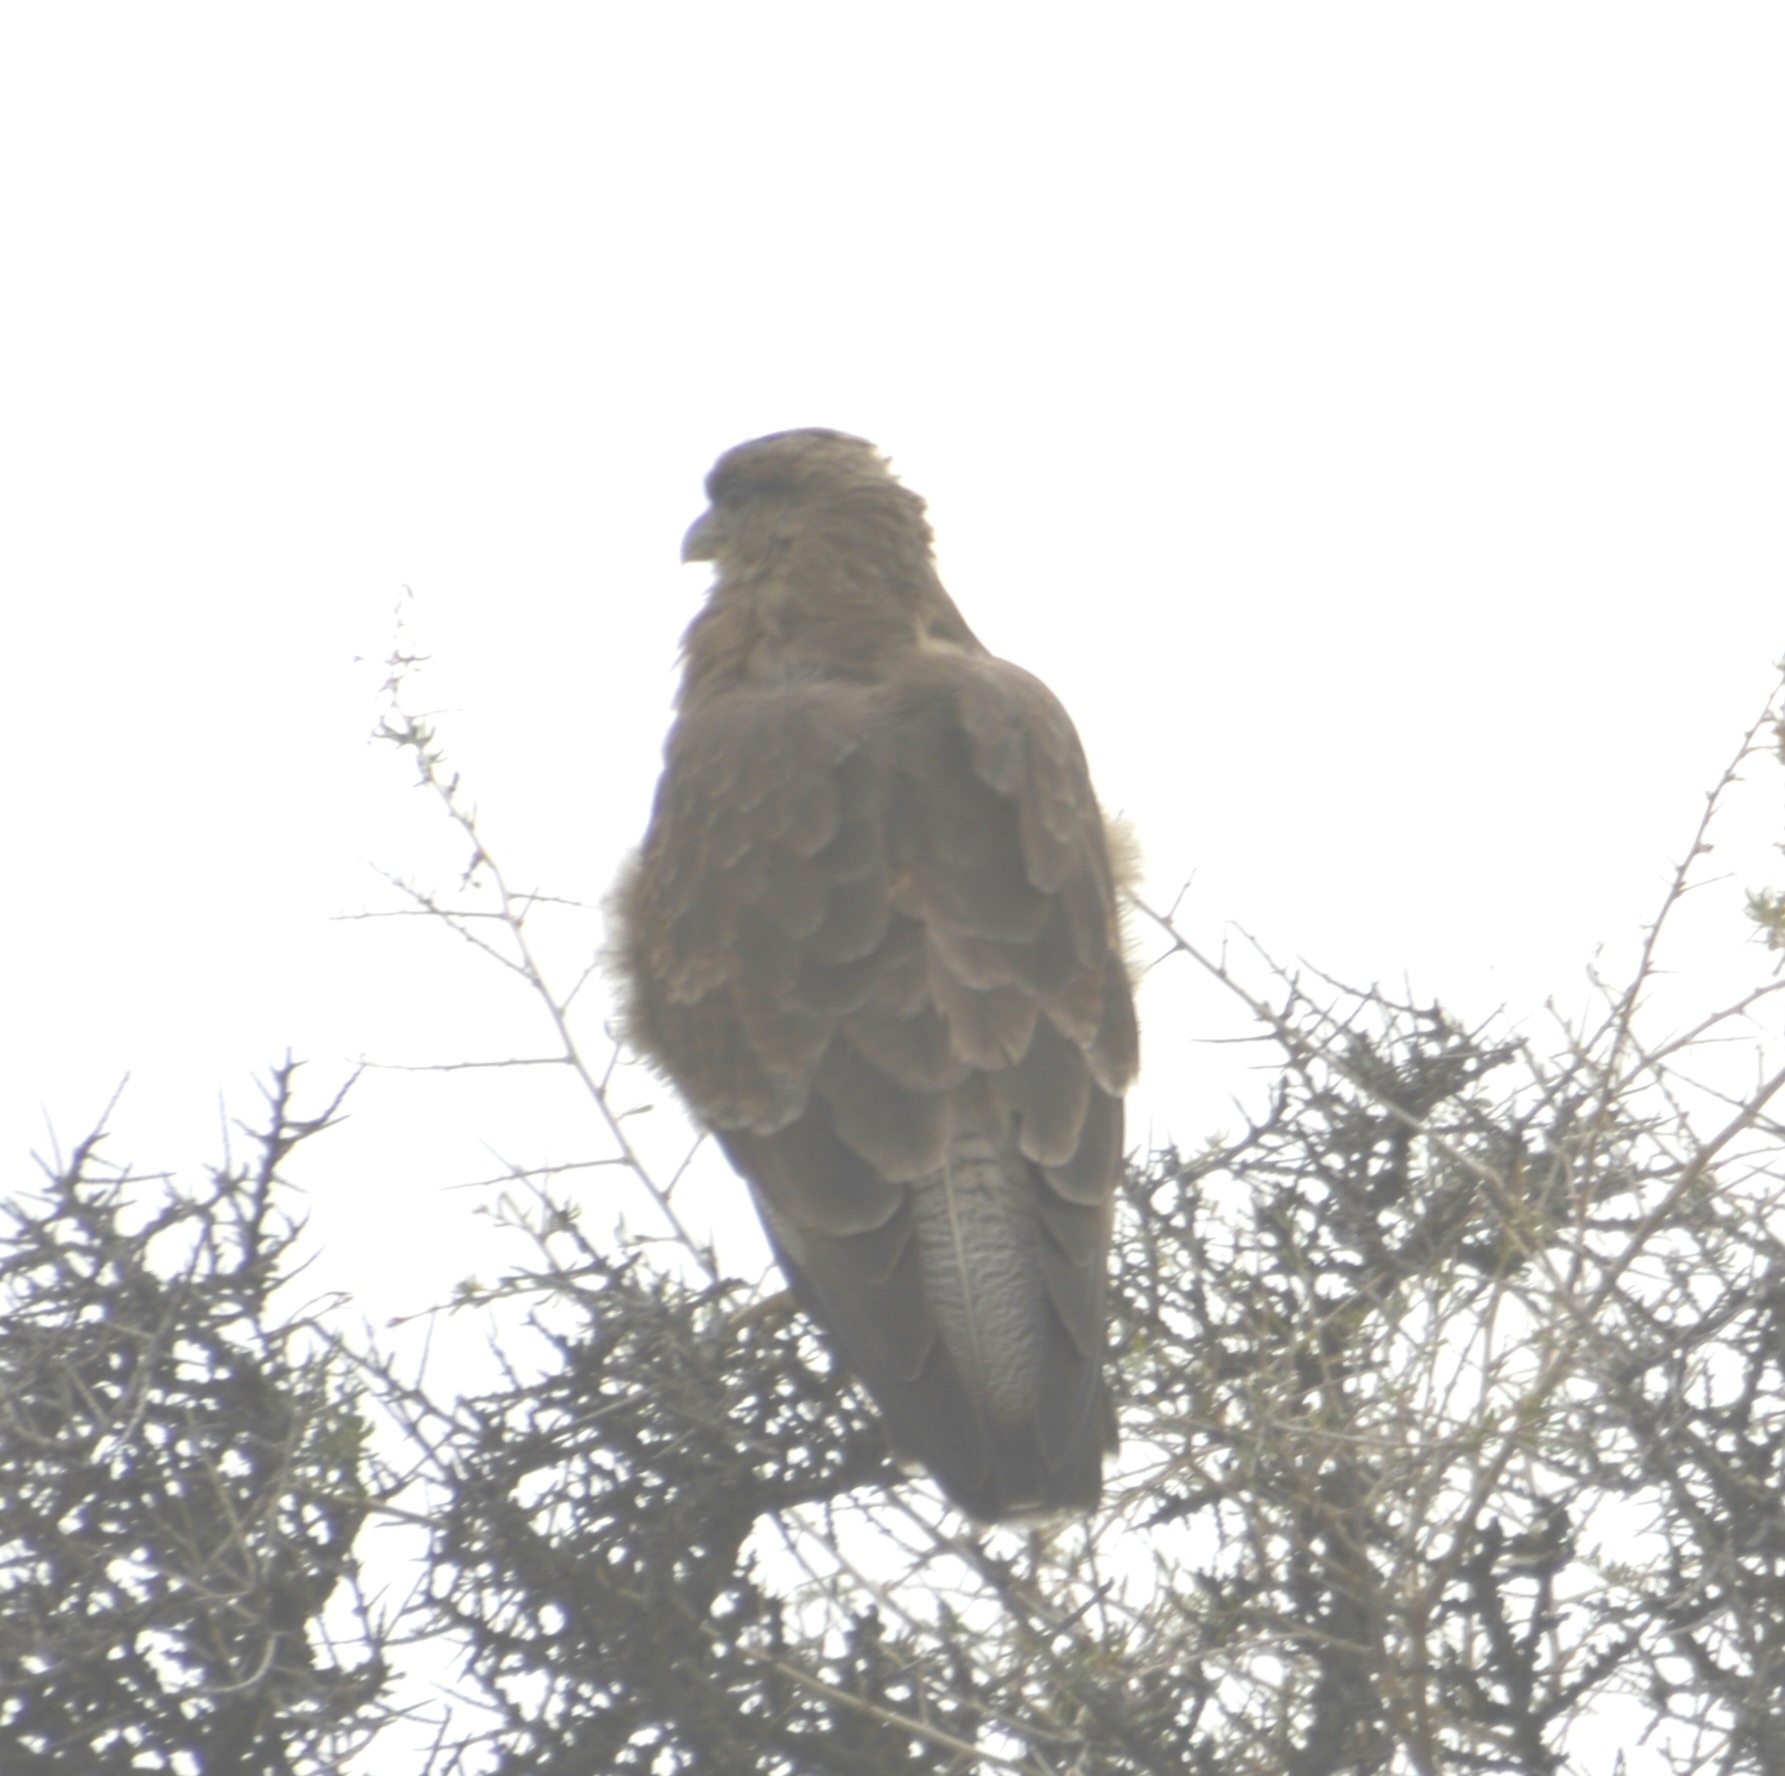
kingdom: Animalia
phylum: Chordata
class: Aves
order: Falconiformes
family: Falconidae
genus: Daptrius
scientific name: Daptrius
